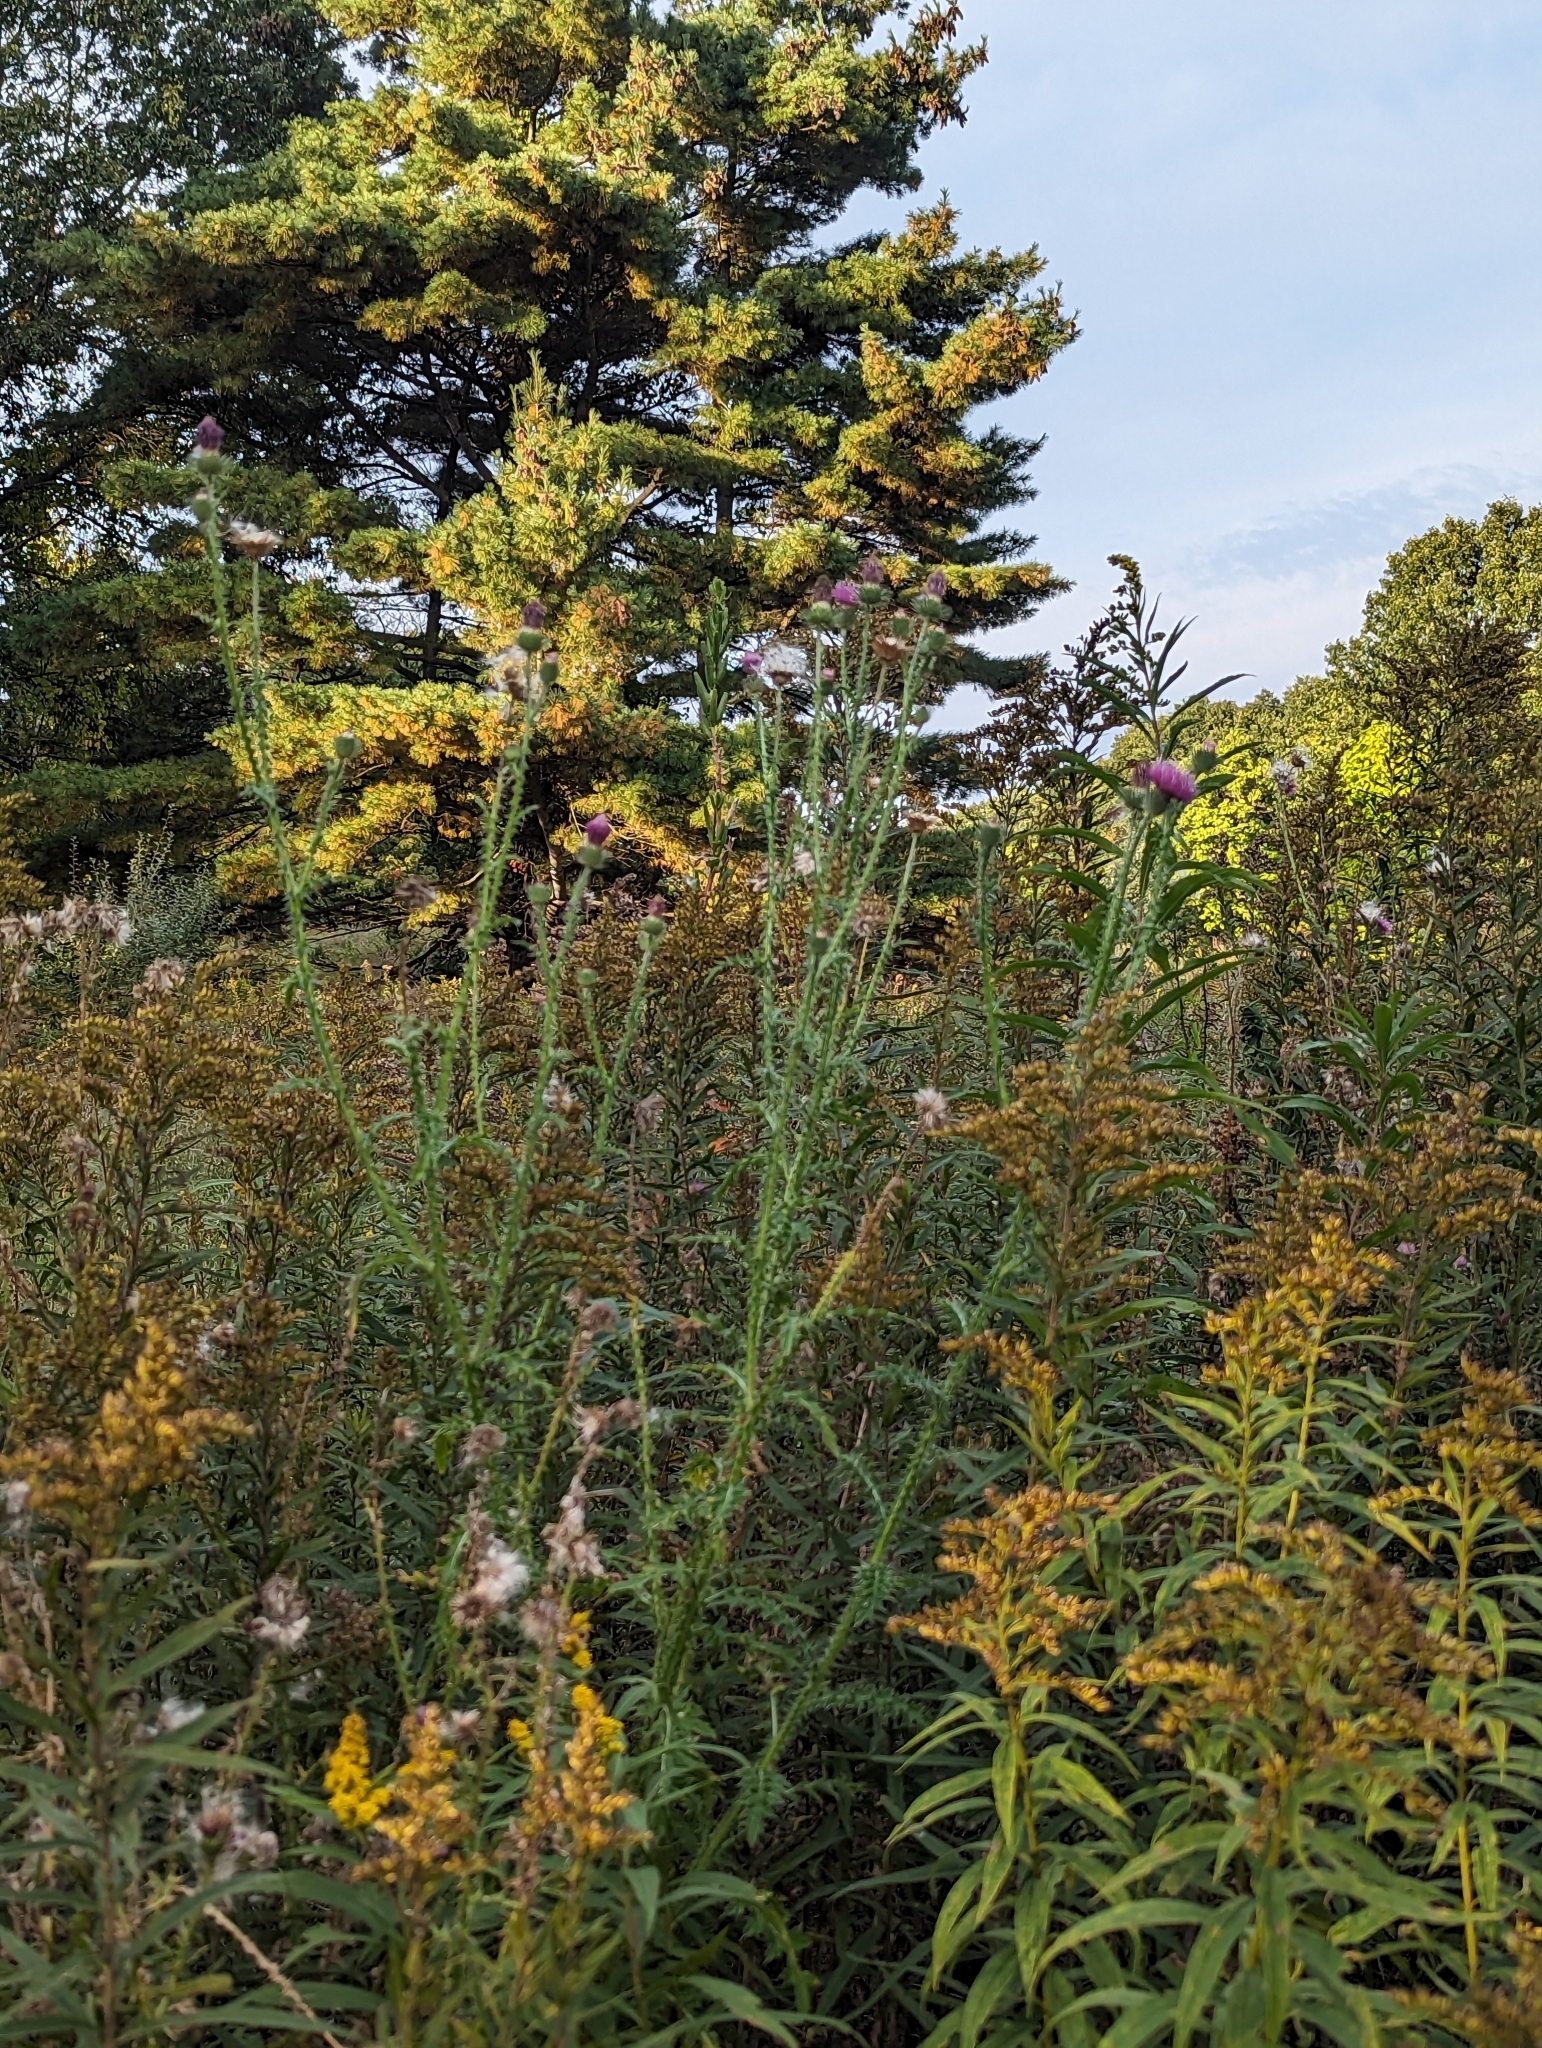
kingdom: Plantae
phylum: Tracheophyta
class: Magnoliopsida
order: Asterales
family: Asteraceae
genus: Carduus
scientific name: Carduus acanthoides
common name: Plumeless thistle
